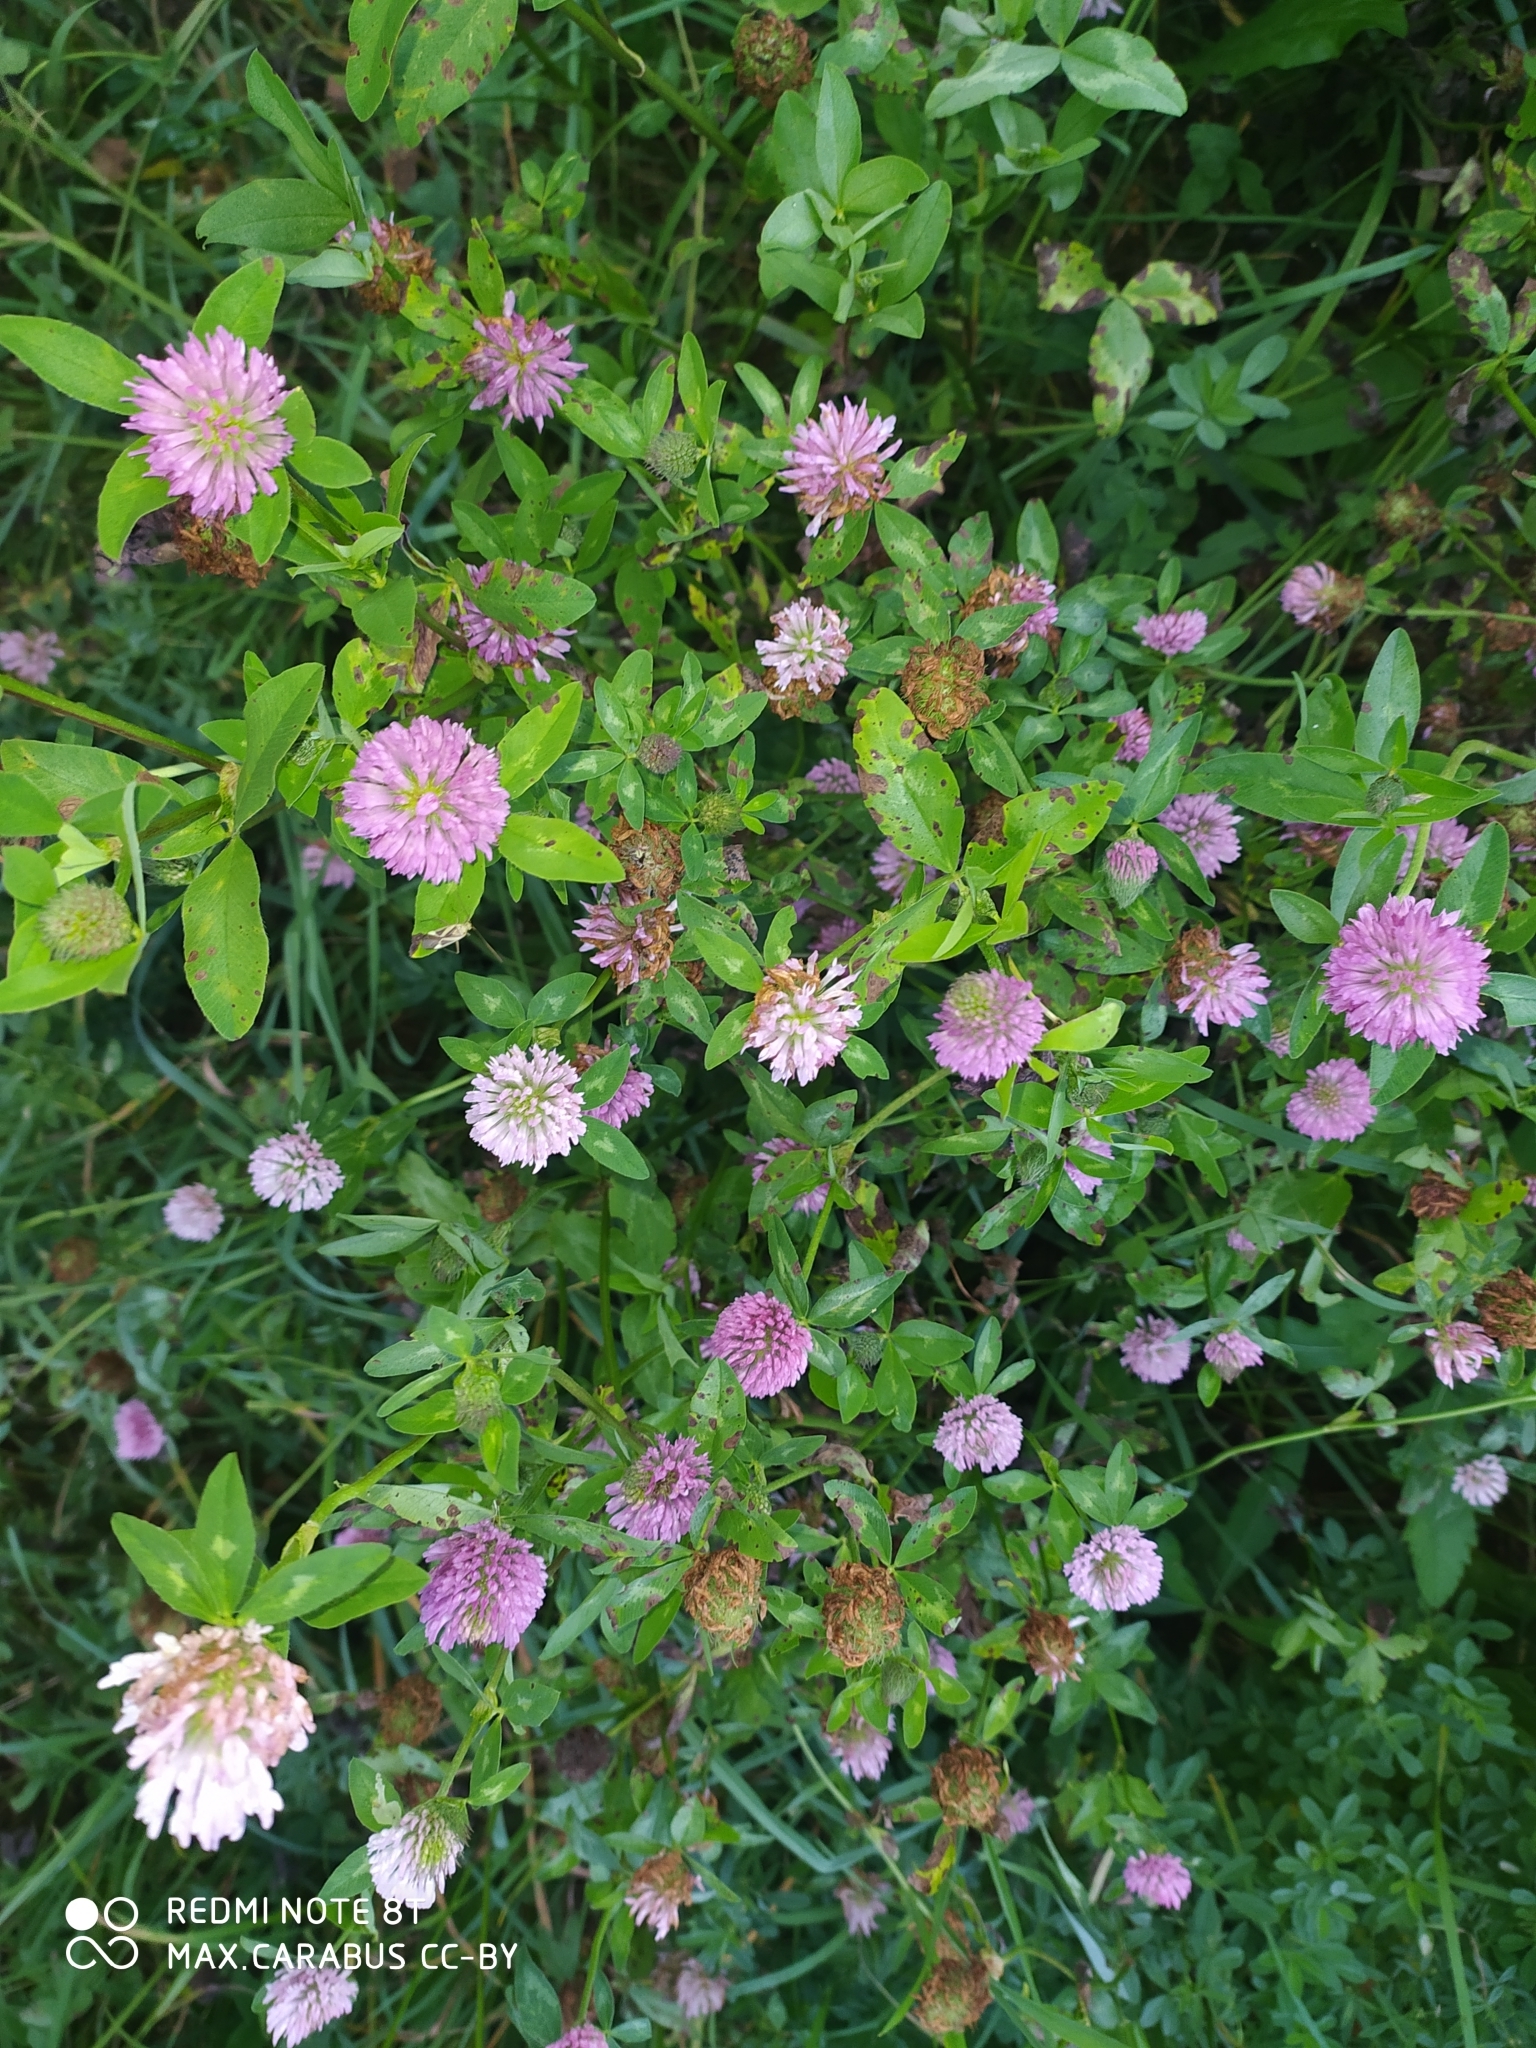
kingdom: Plantae
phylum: Tracheophyta
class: Magnoliopsida
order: Fabales
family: Fabaceae
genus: Trifolium
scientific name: Trifolium pratense
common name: Red clover
